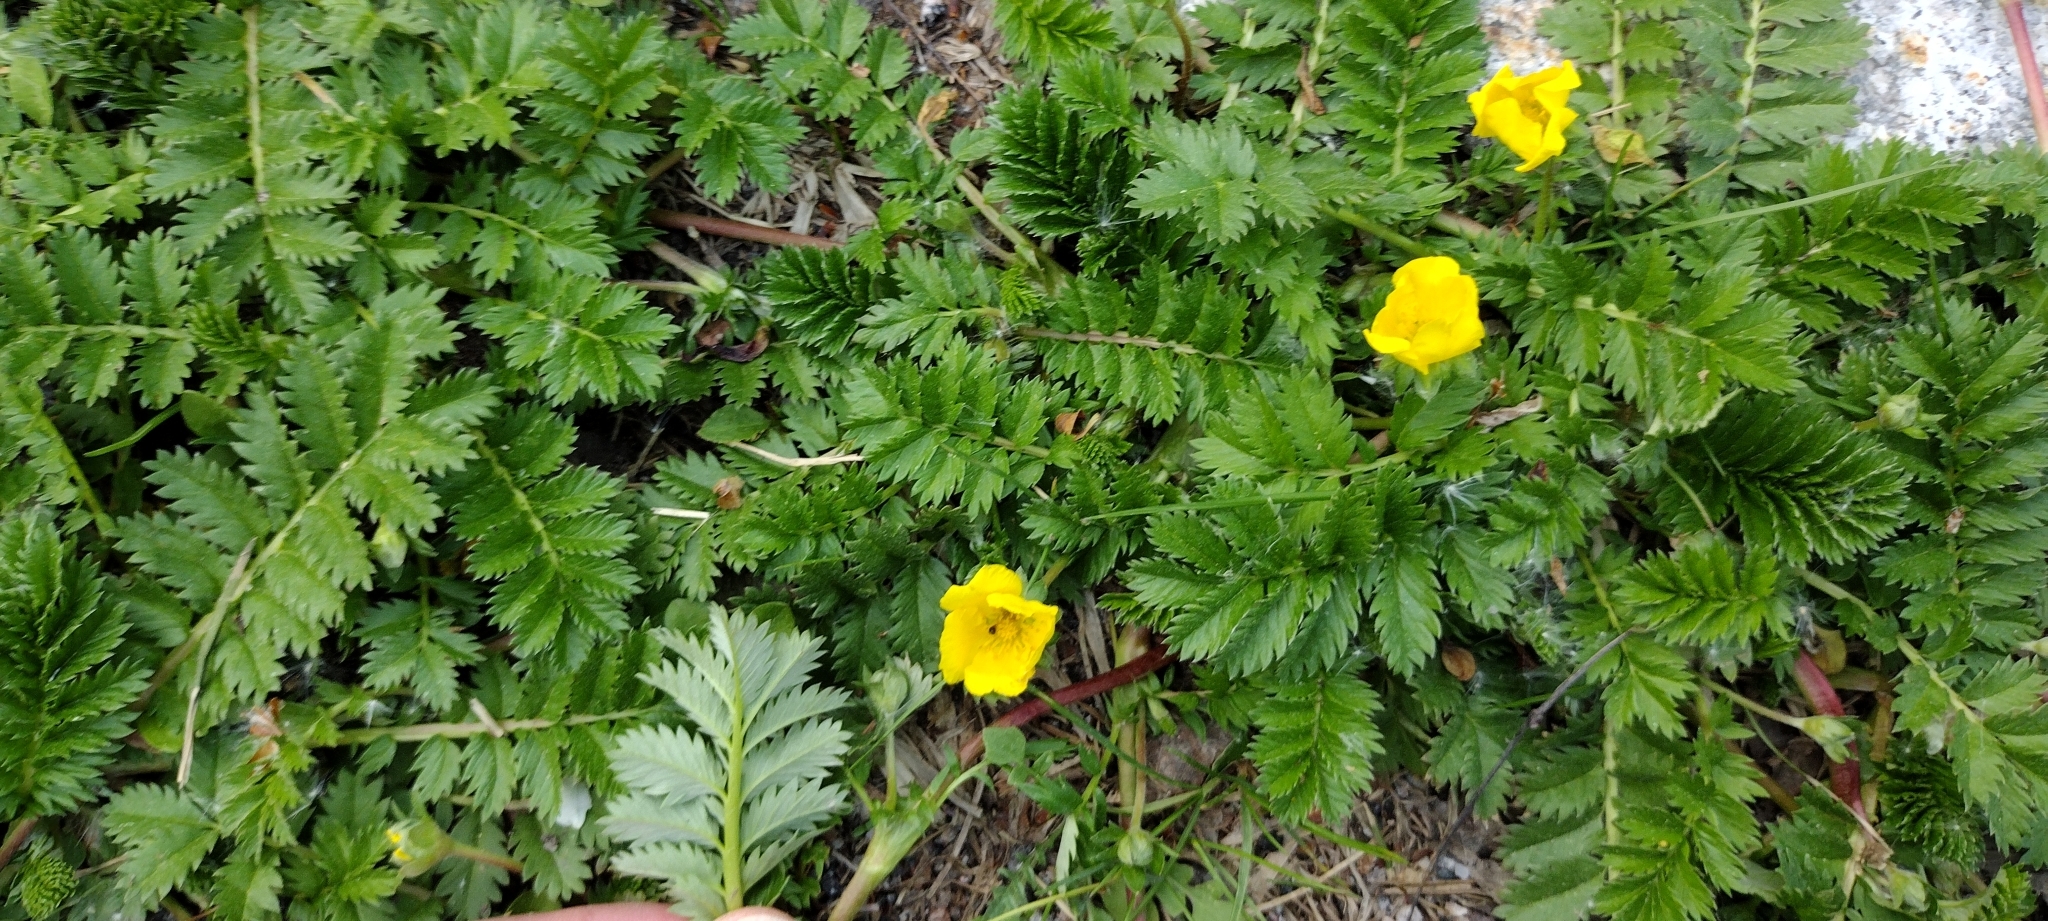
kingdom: Plantae
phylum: Tracheophyta
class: Magnoliopsida
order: Rosales
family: Rosaceae
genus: Argentina
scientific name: Argentina anserina
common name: Common silverweed
